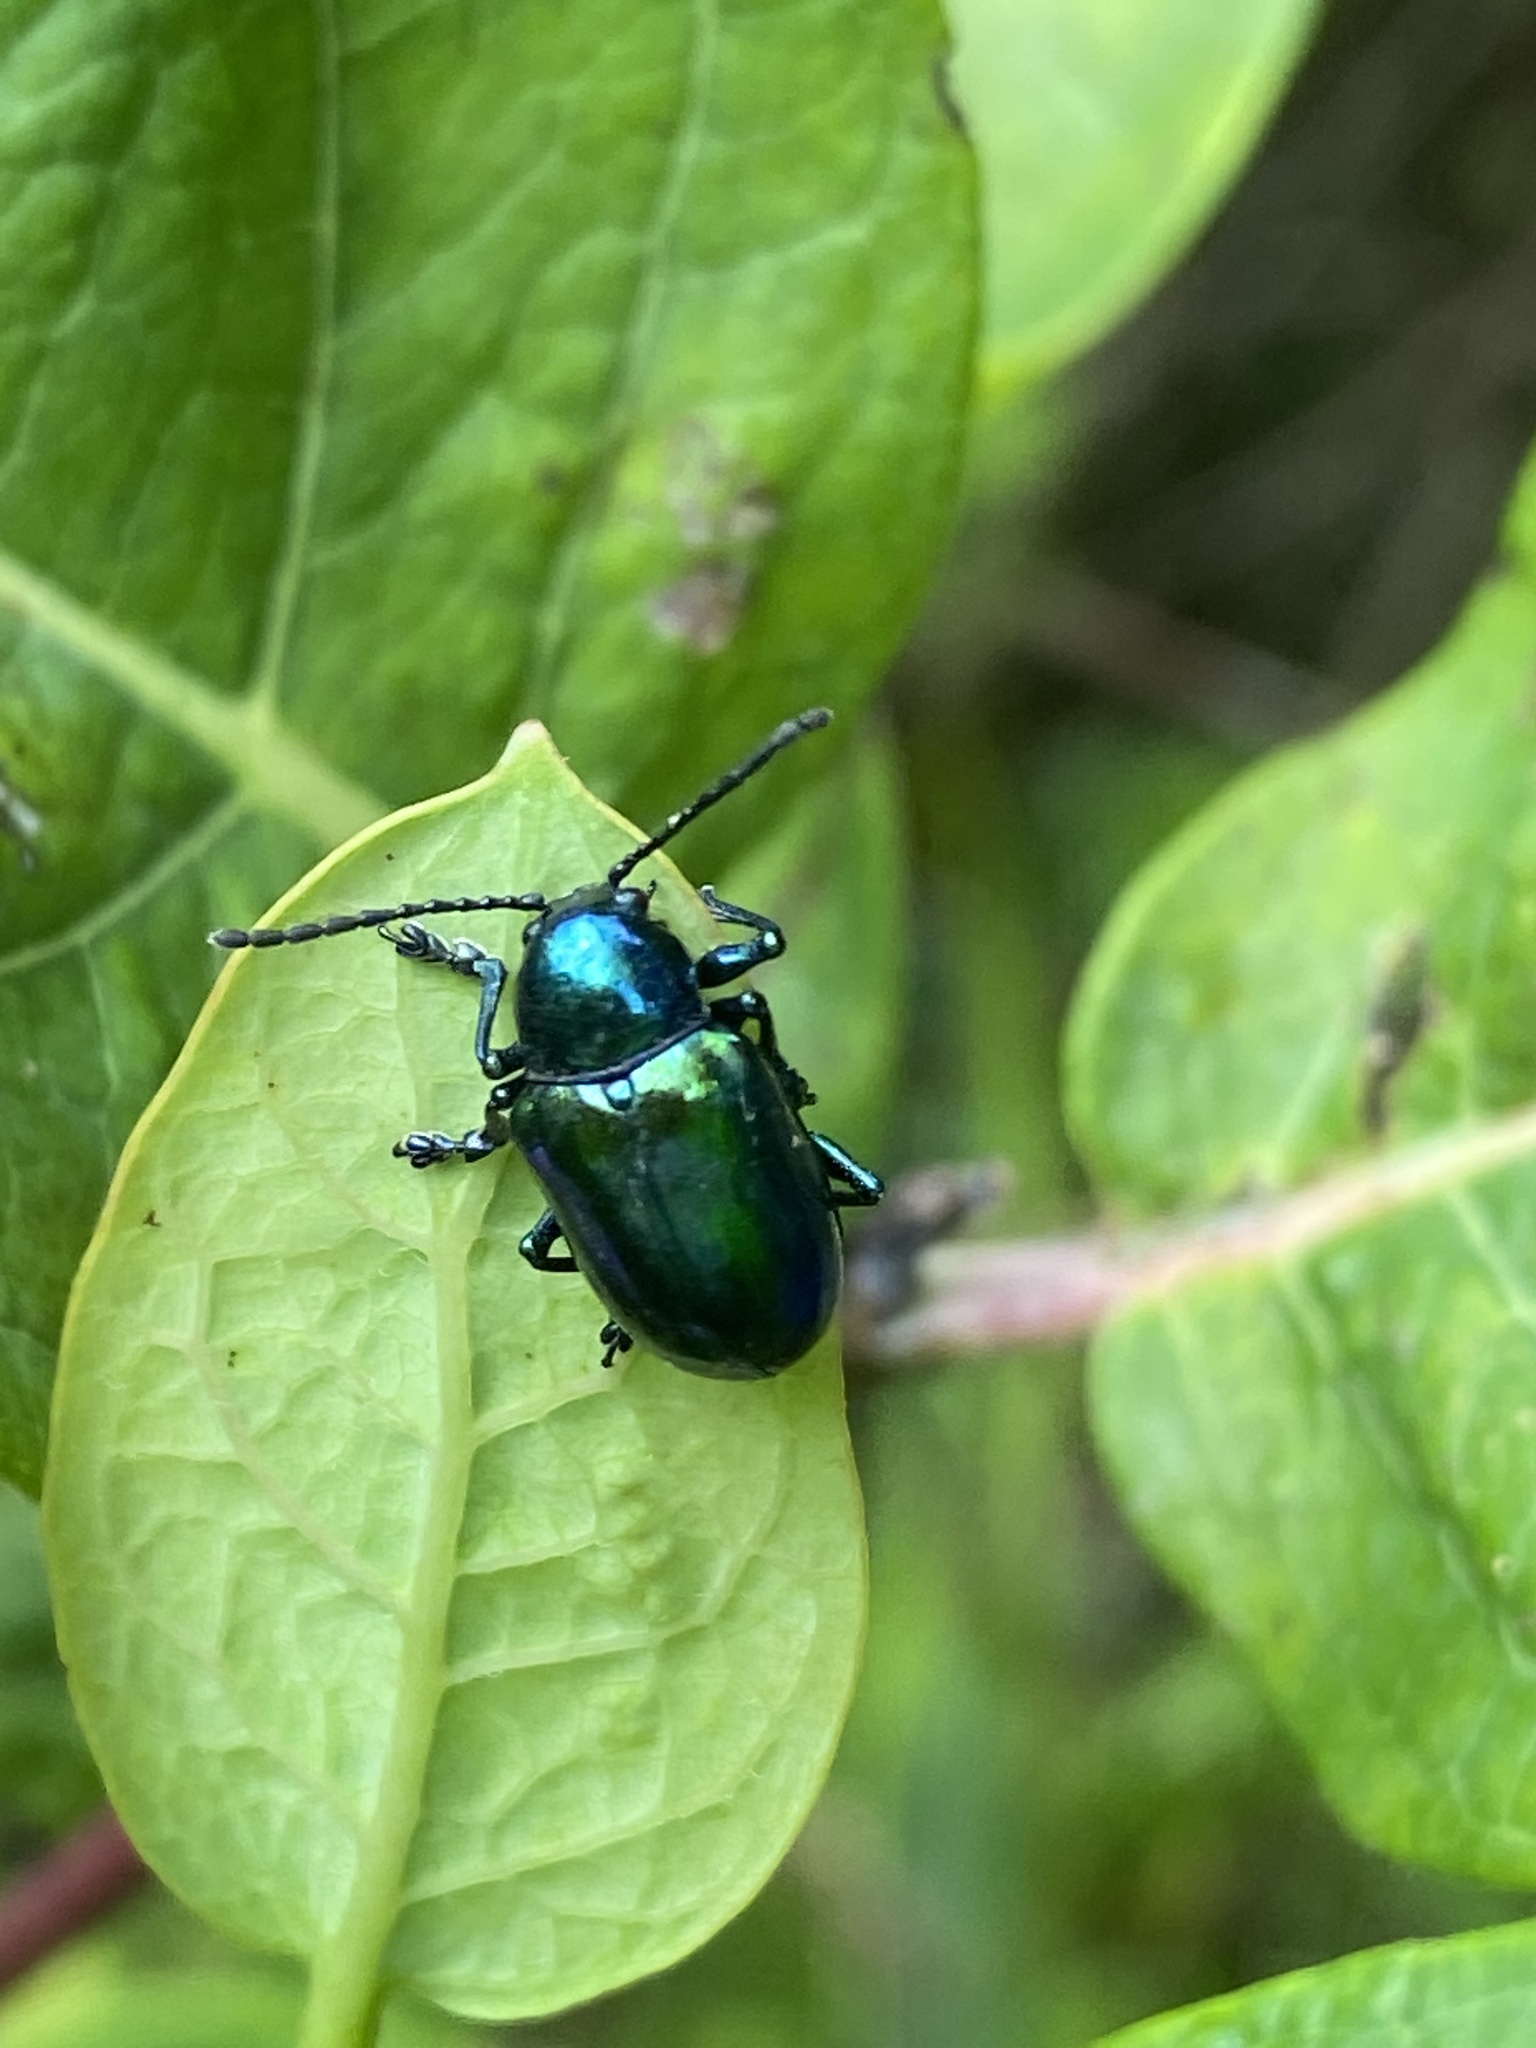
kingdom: Animalia
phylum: Arthropoda
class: Insecta
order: Coleoptera
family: Chrysomelidae
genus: Chrysochus
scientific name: Chrysochus auratus
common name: Dogbane leaf beetle
